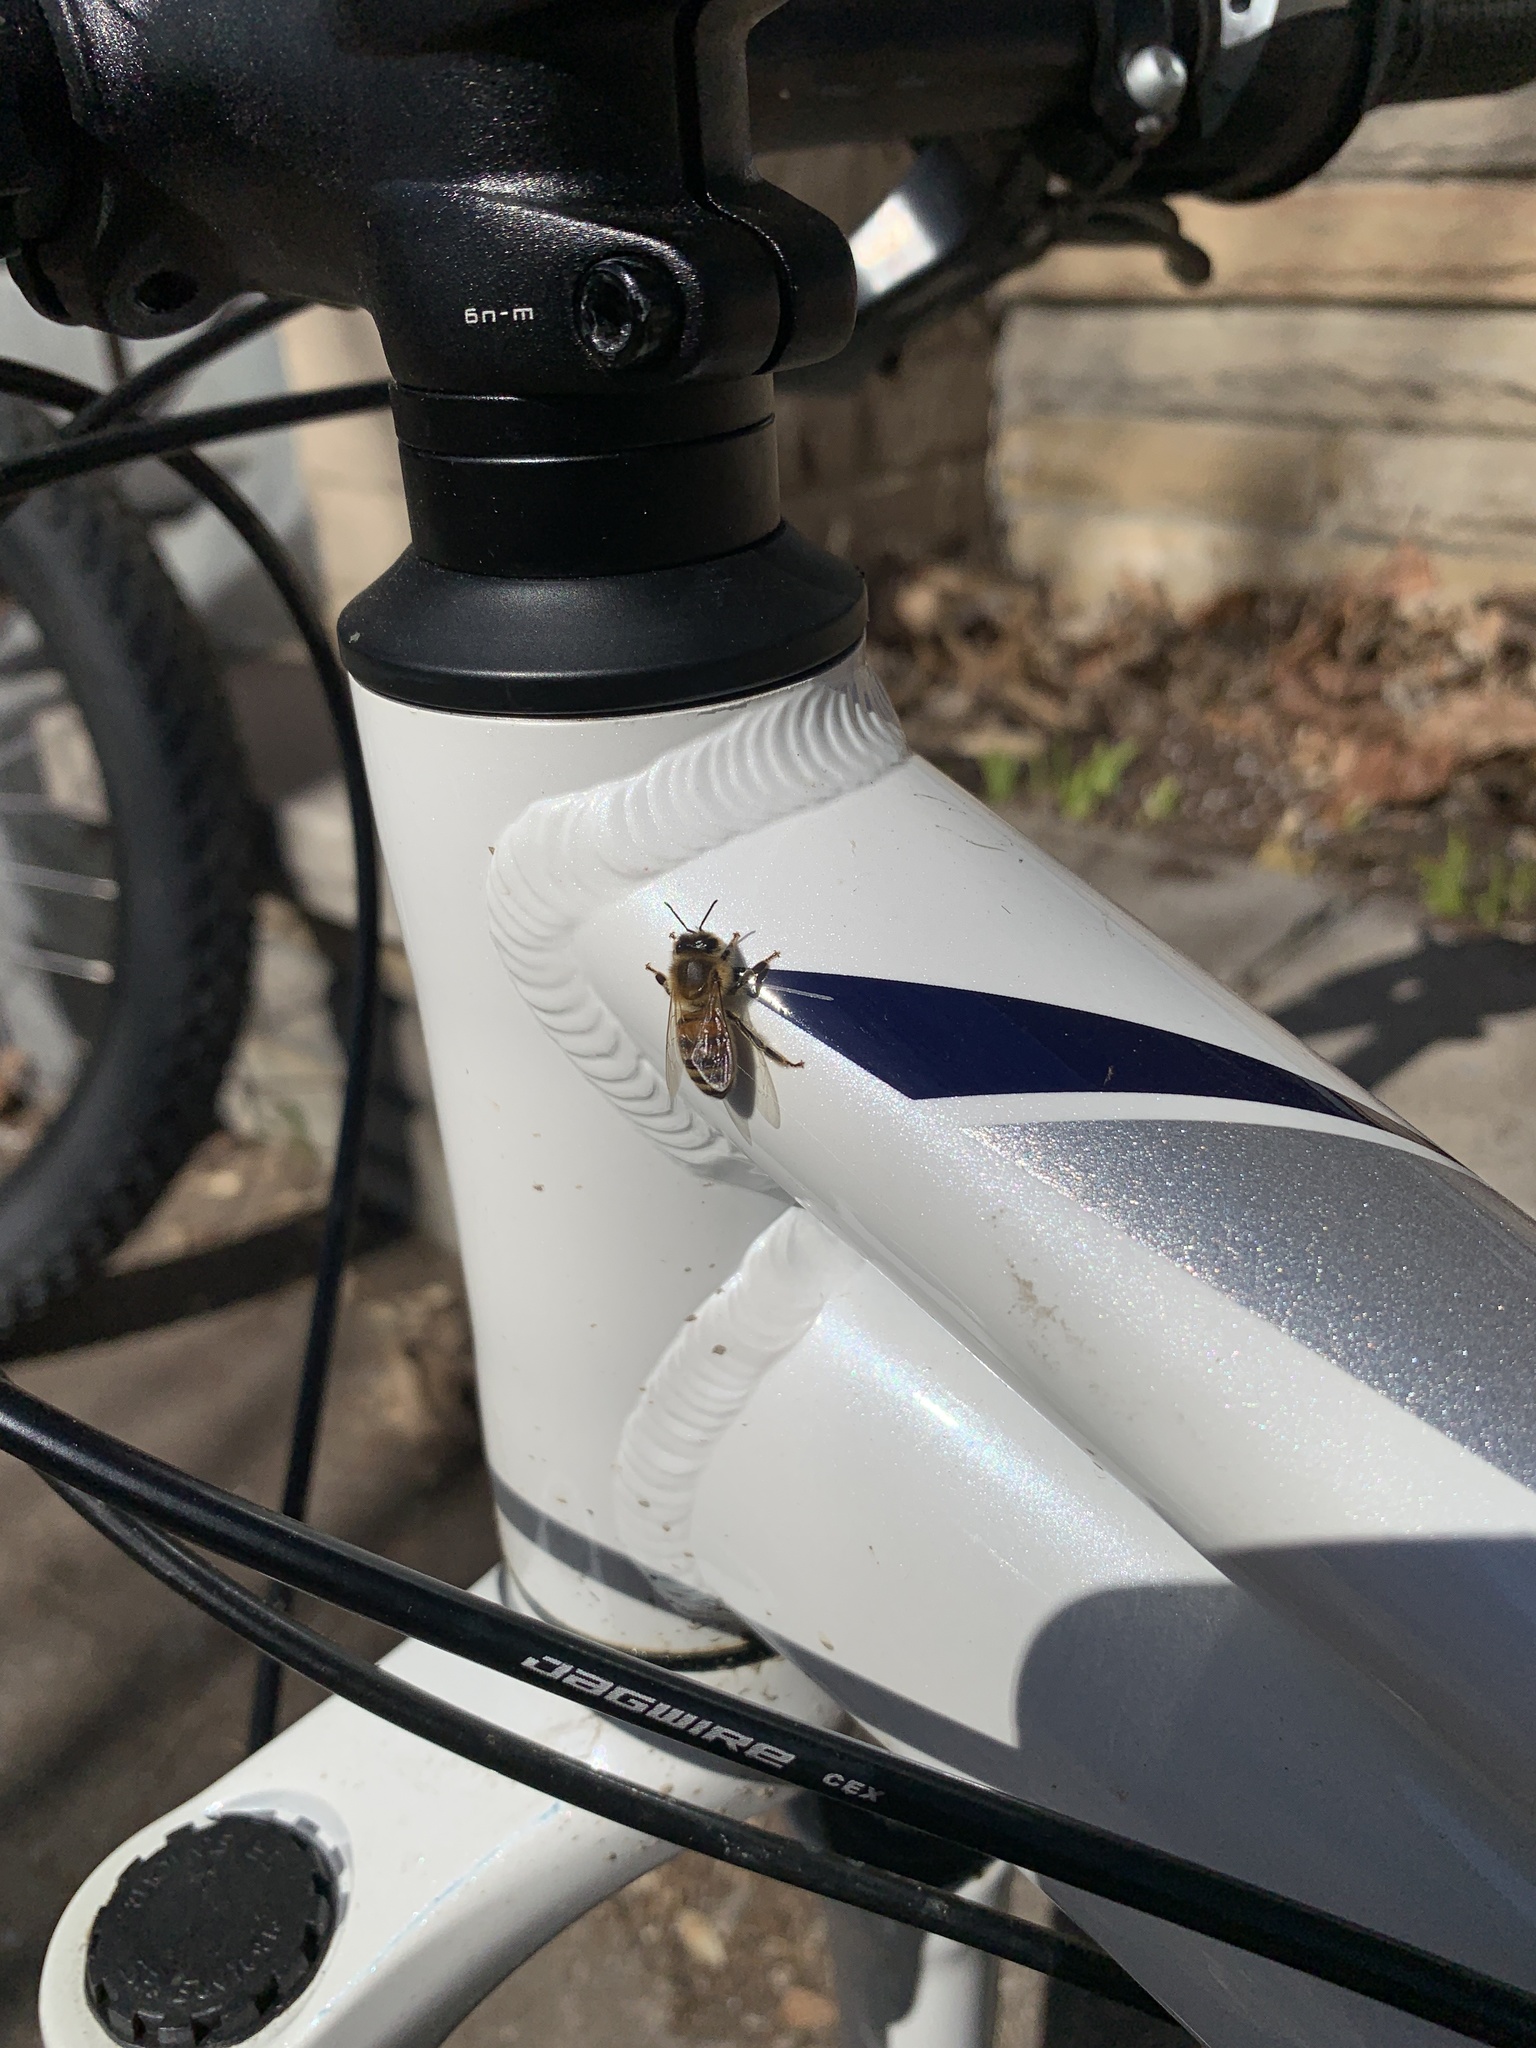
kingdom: Animalia
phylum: Arthropoda
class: Insecta
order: Hymenoptera
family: Apidae
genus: Apis
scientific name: Apis mellifera
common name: Honey bee
